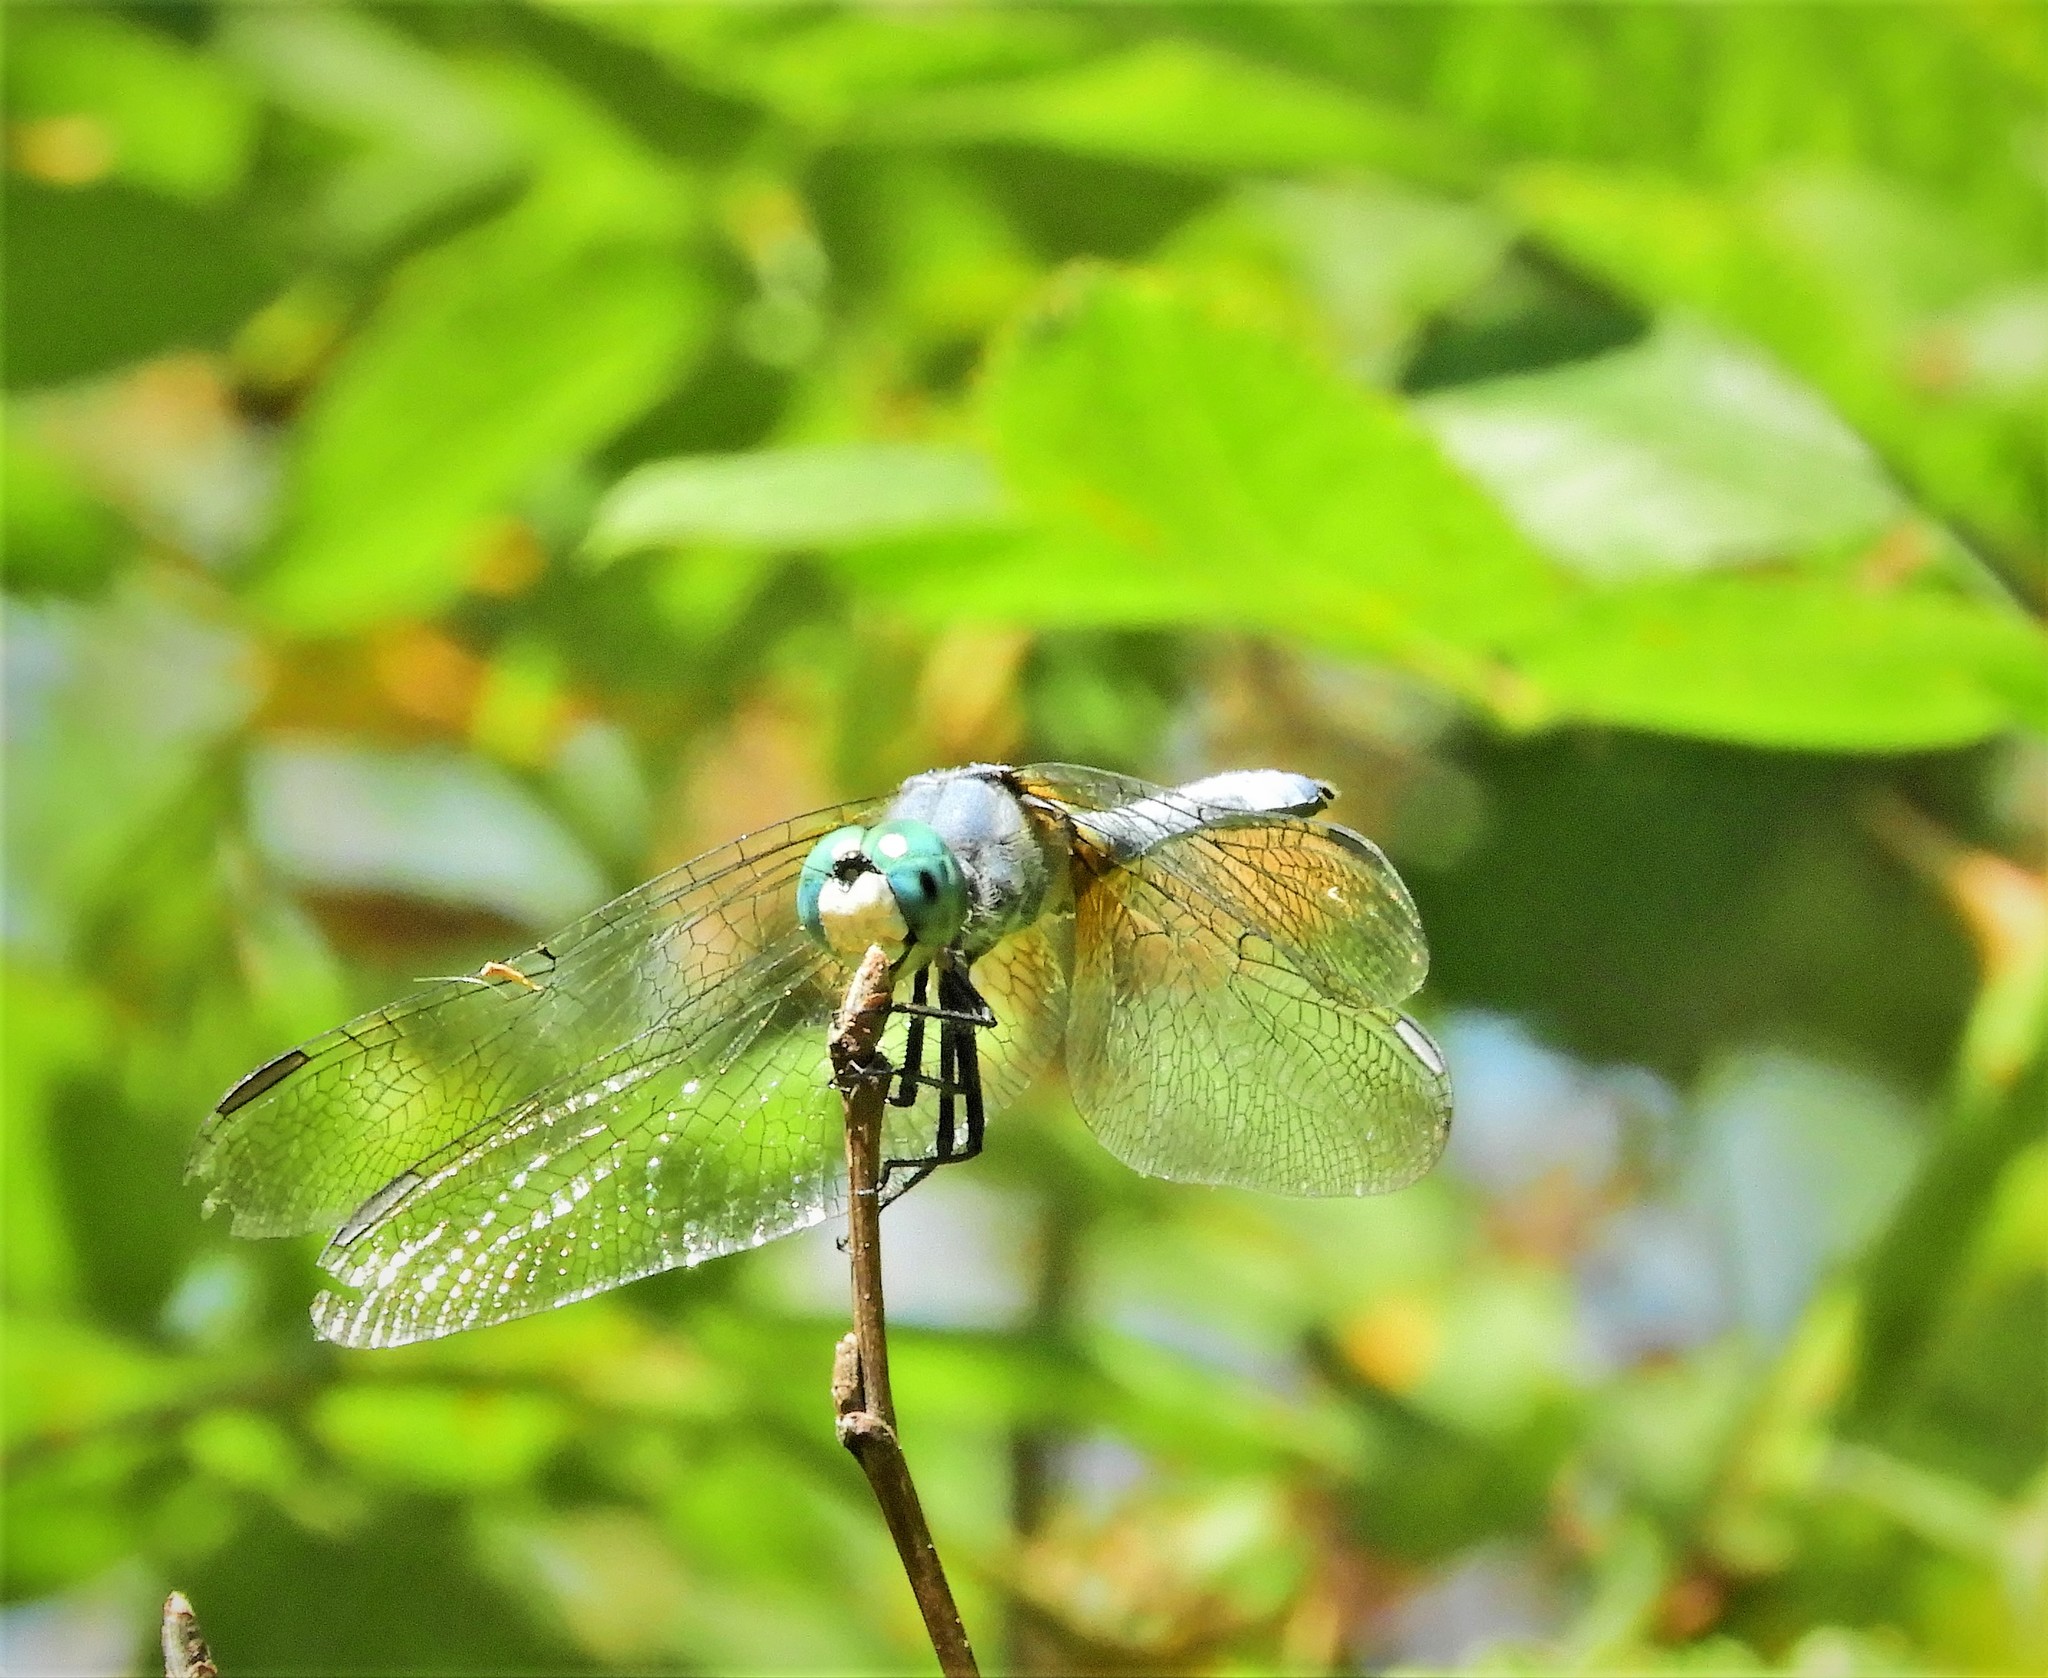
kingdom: Animalia
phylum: Arthropoda
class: Insecta
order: Odonata
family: Libellulidae
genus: Pachydiplax
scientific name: Pachydiplax longipennis
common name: Blue dasher
